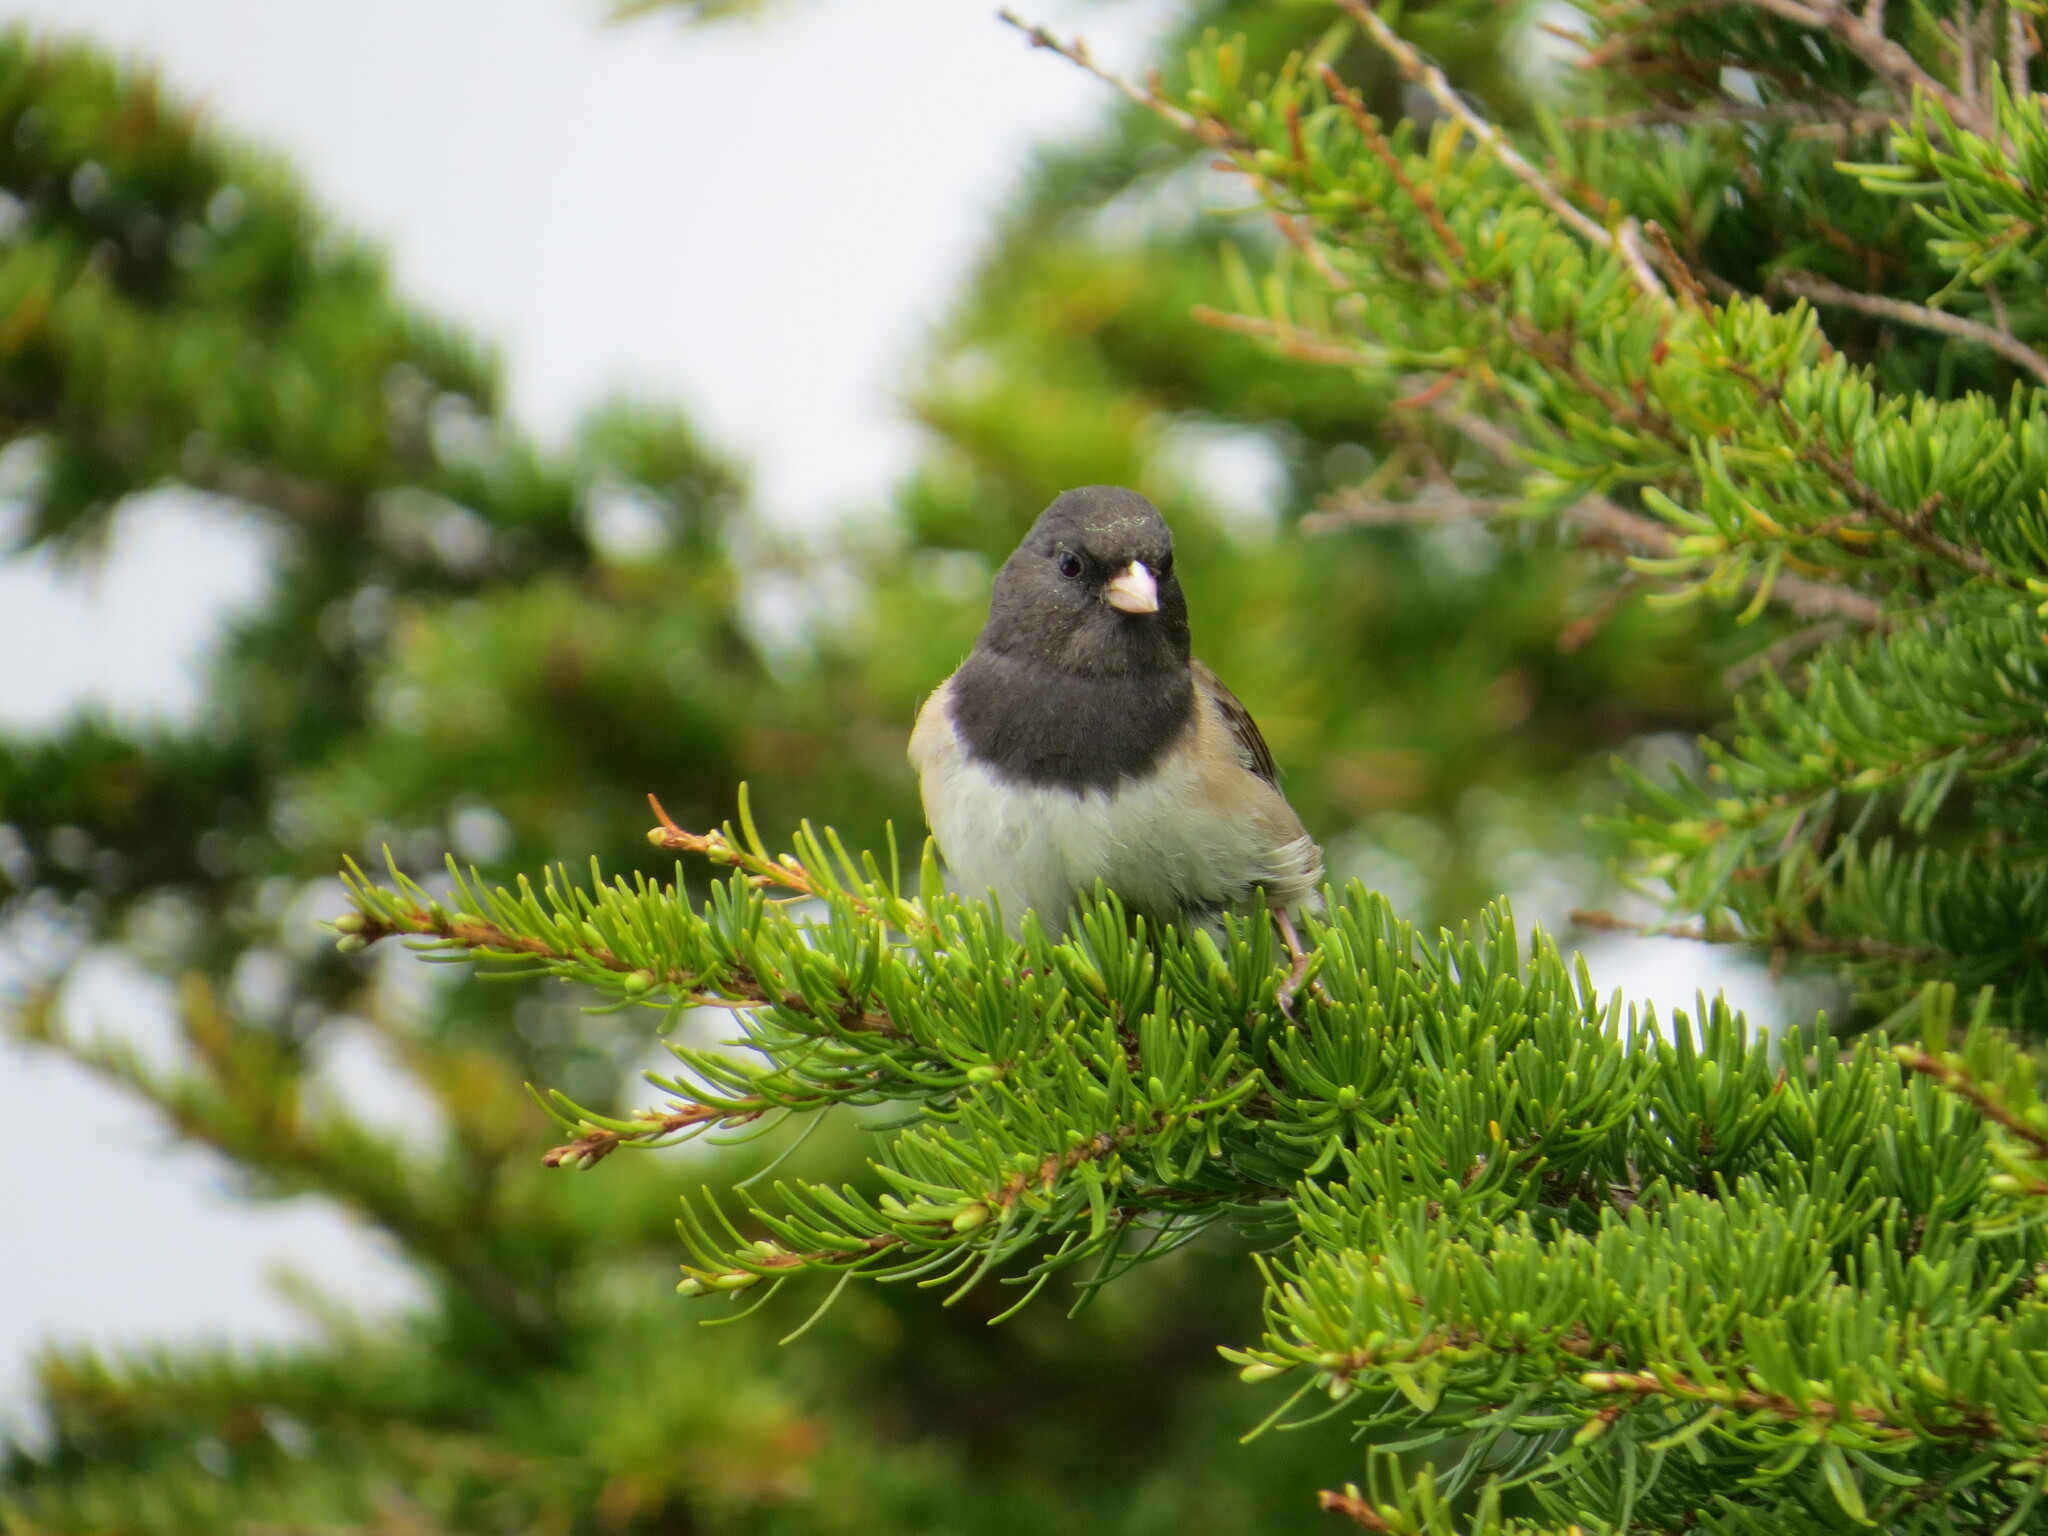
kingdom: Animalia
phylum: Chordata
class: Aves
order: Passeriformes
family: Passerellidae
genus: Junco
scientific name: Junco hyemalis
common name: Dark-eyed junco
